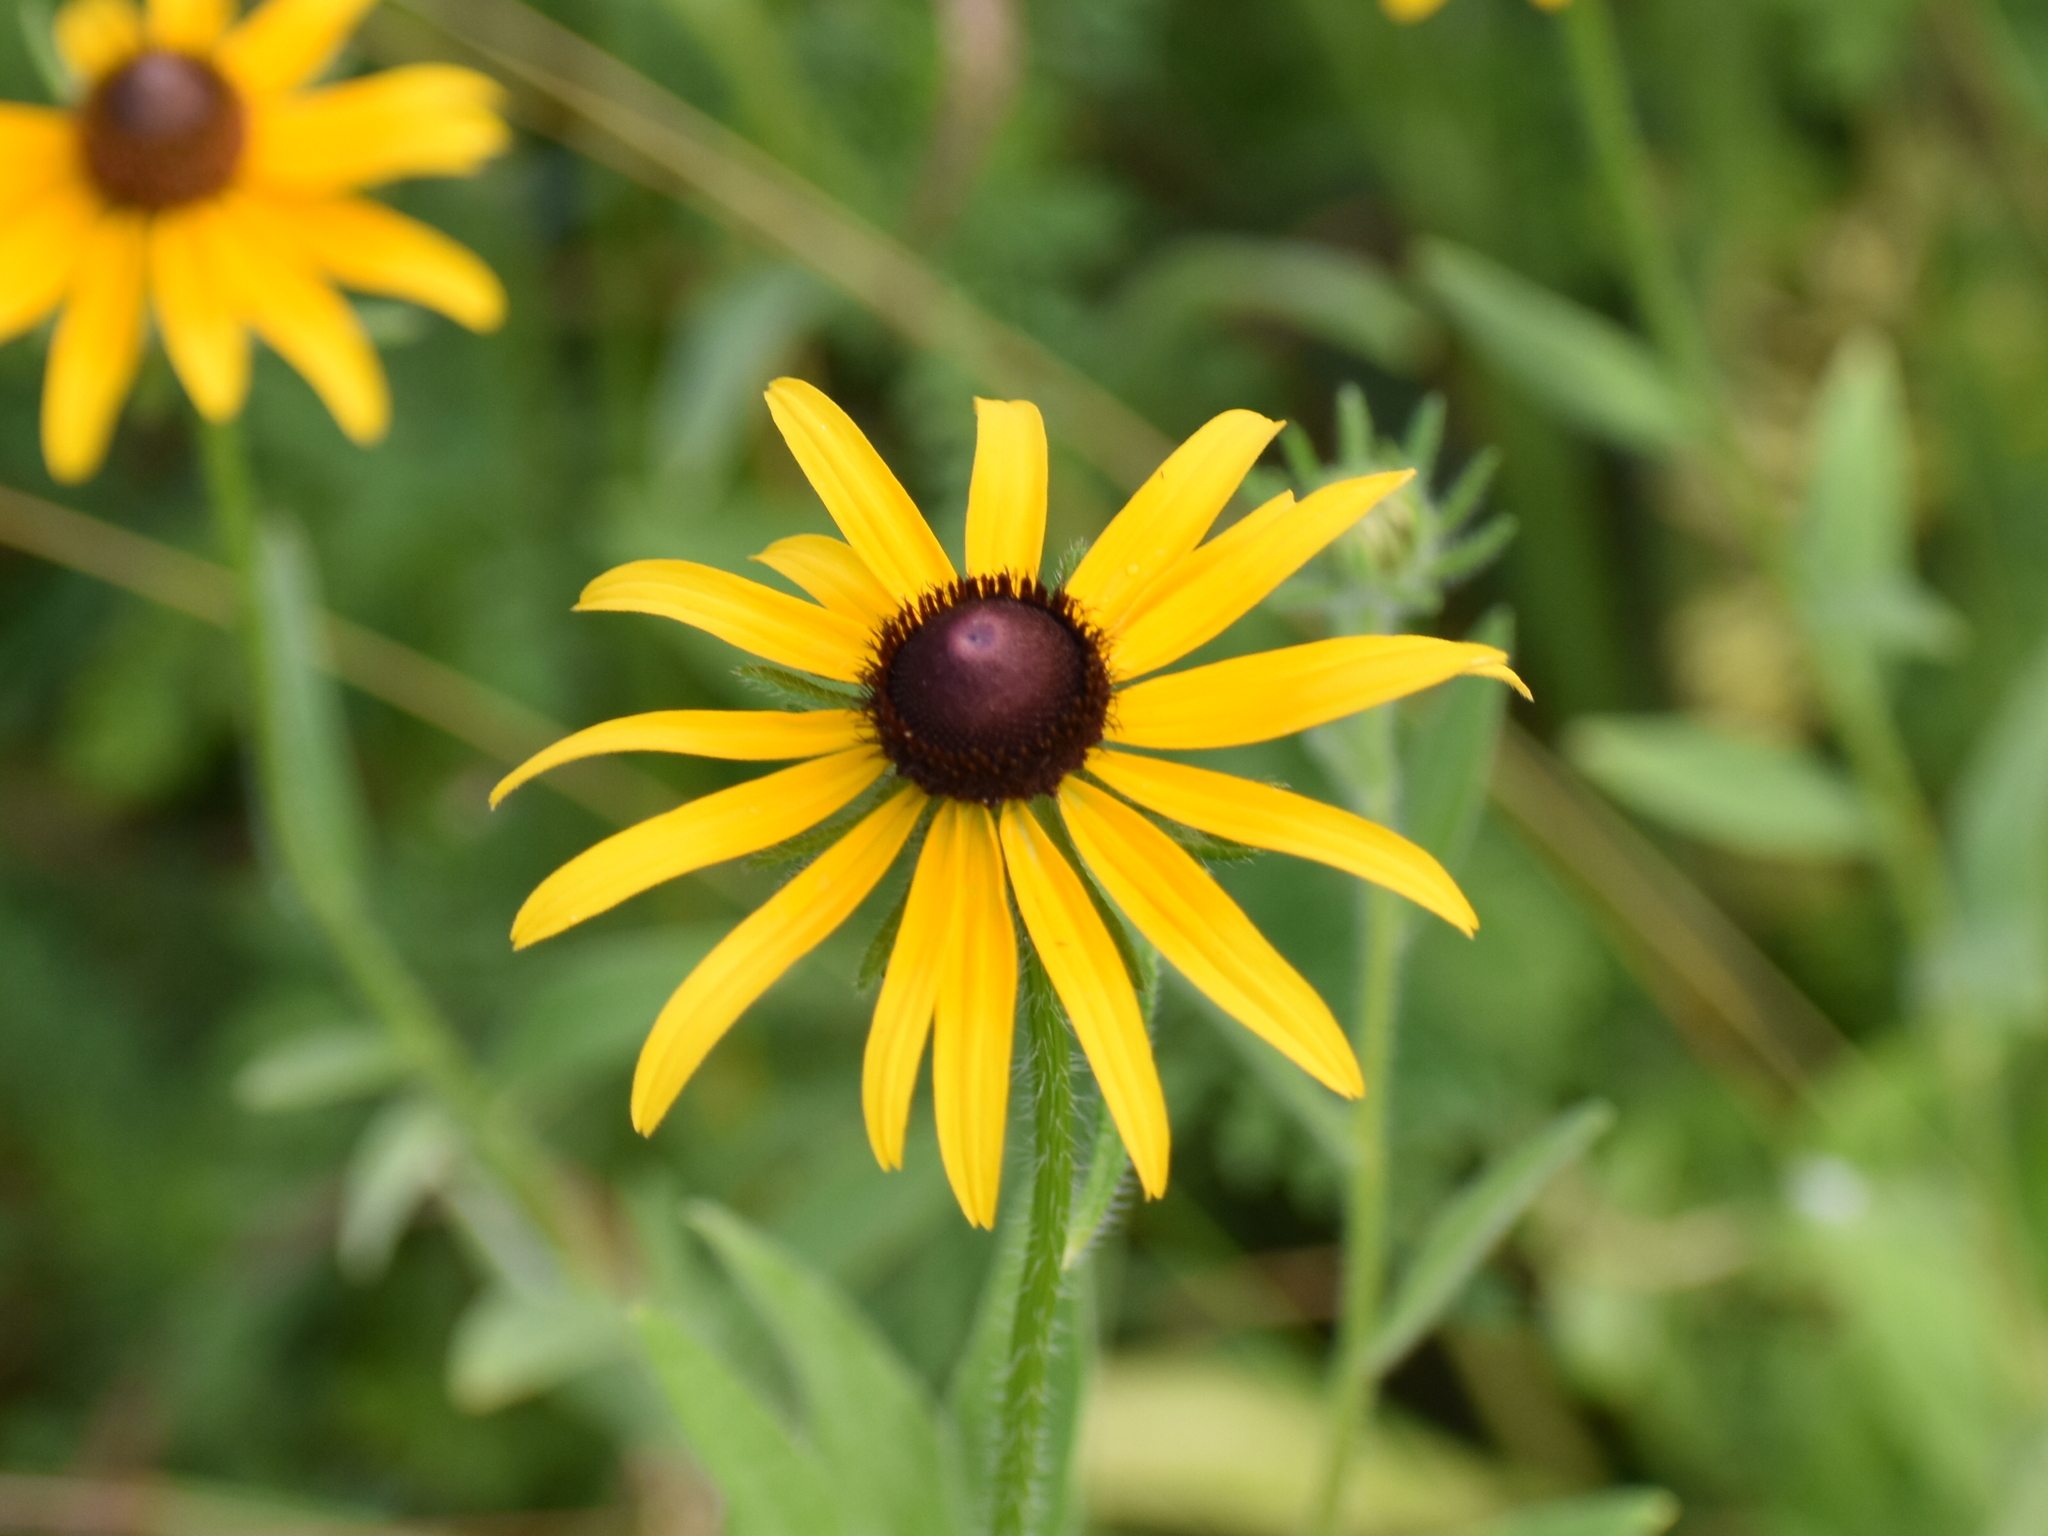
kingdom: Plantae
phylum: Tracheophyta
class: Magnoliopsida
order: Asterales
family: Asteraceae
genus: Rudbeckia
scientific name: Rudbeckia hirta
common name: Black-eyed-susan
